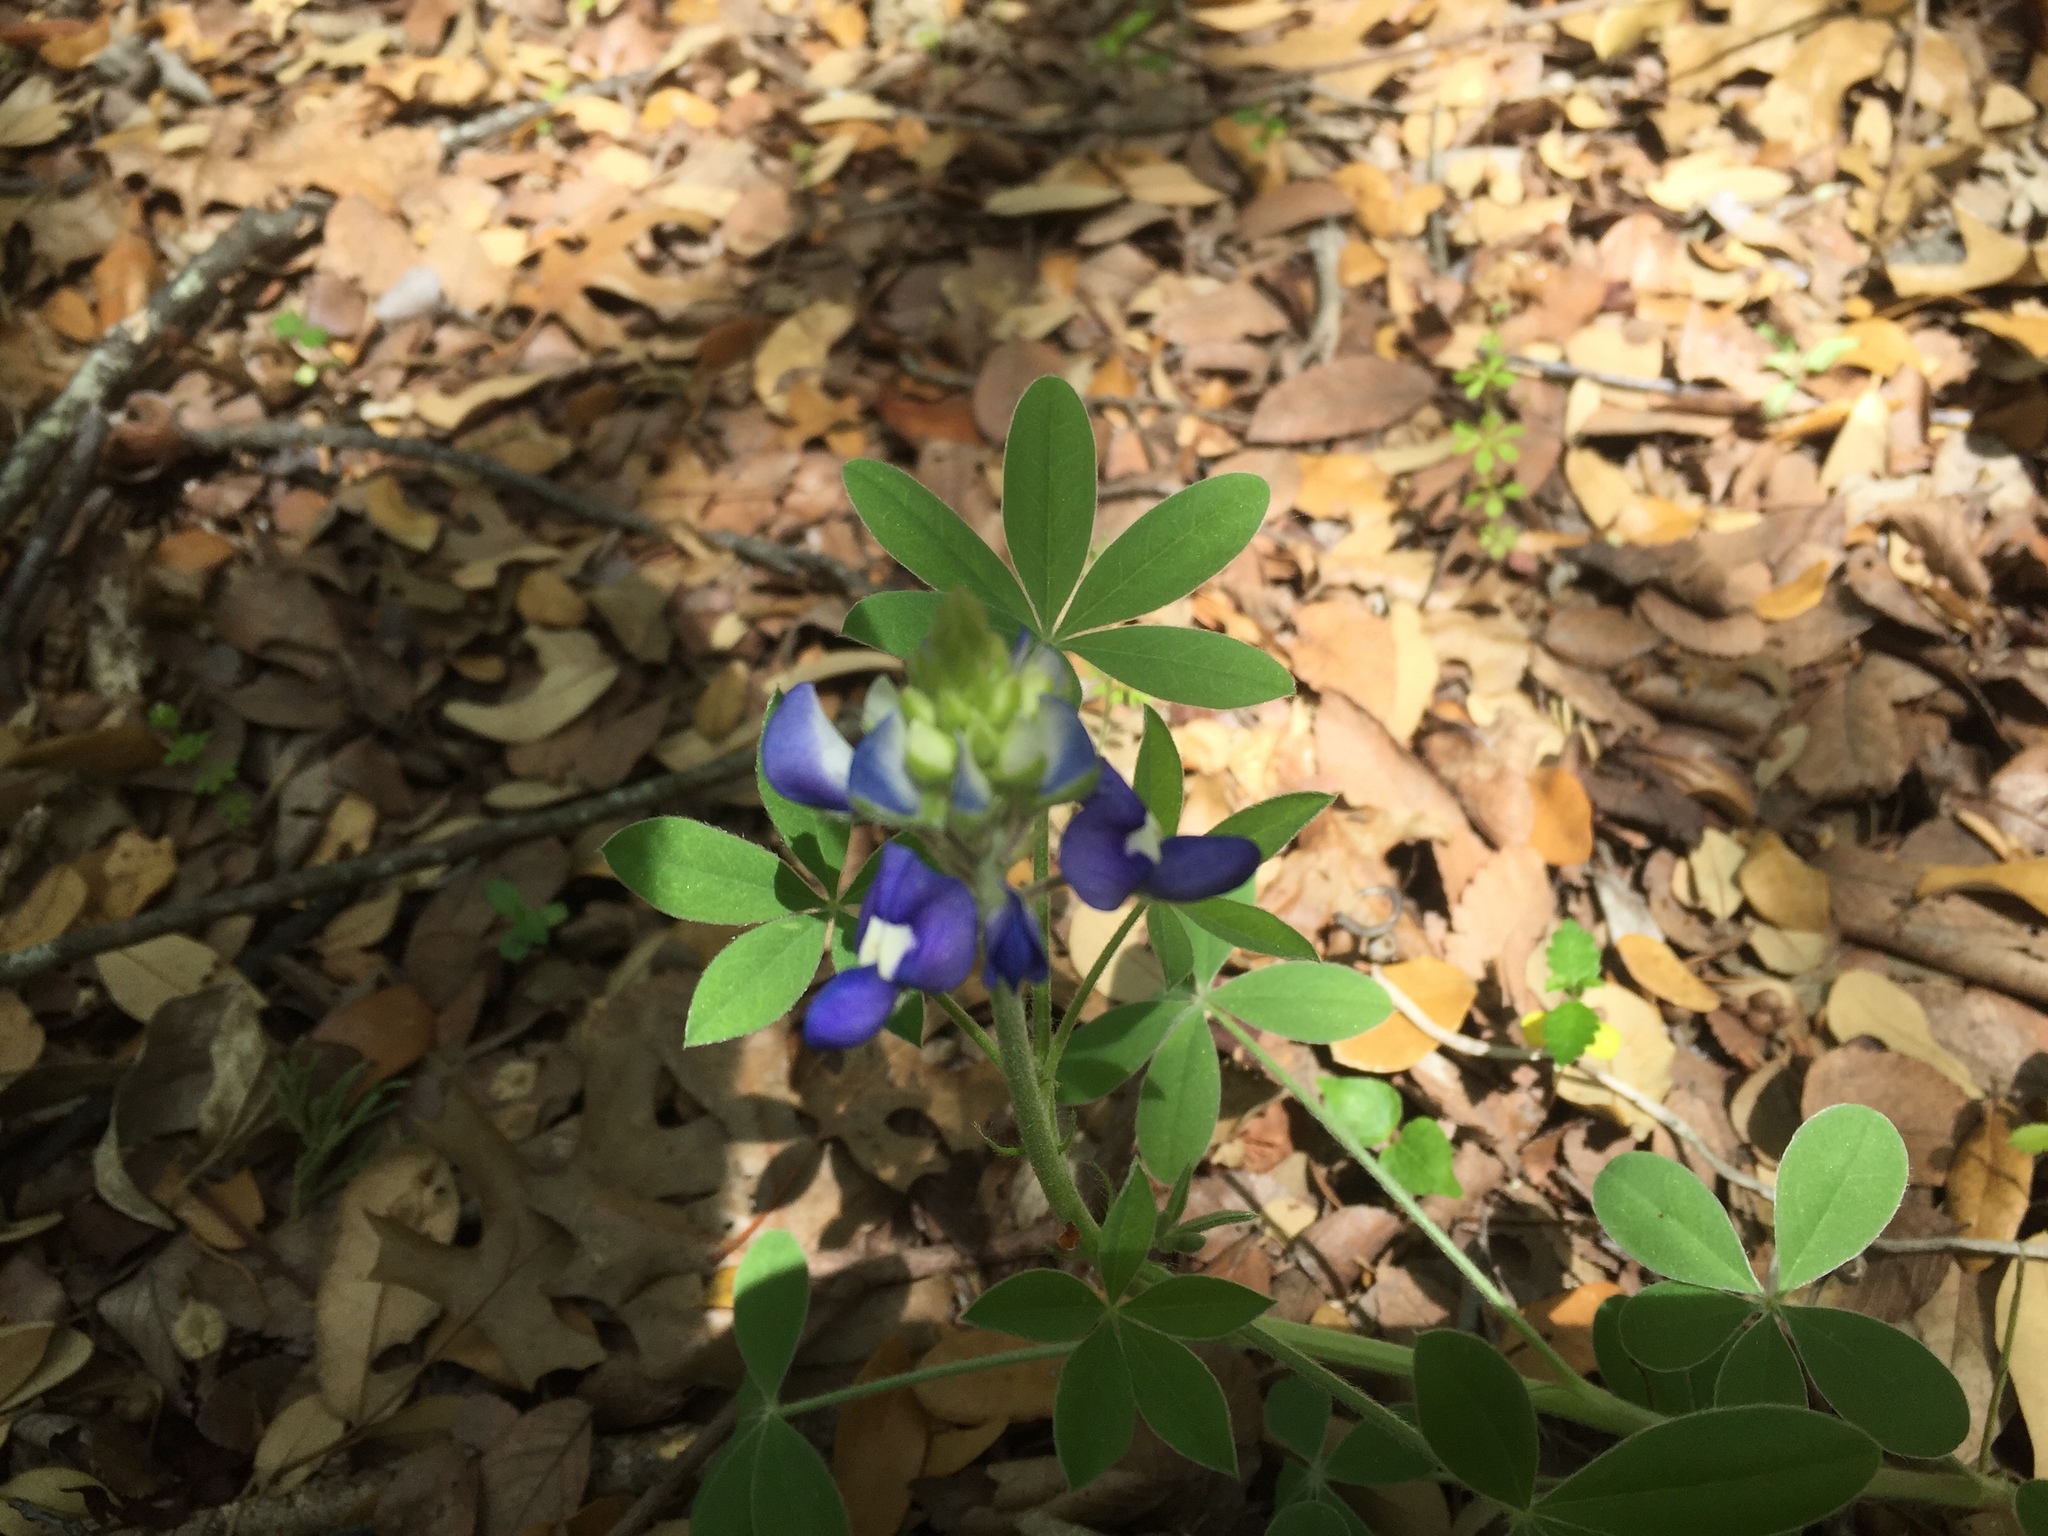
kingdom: Plantae
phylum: Tracheophyta
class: Magnoliopsida
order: Fabales
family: Fabaceae
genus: Lupinus
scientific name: Lupinus texensis
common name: Texas bluebonnet
